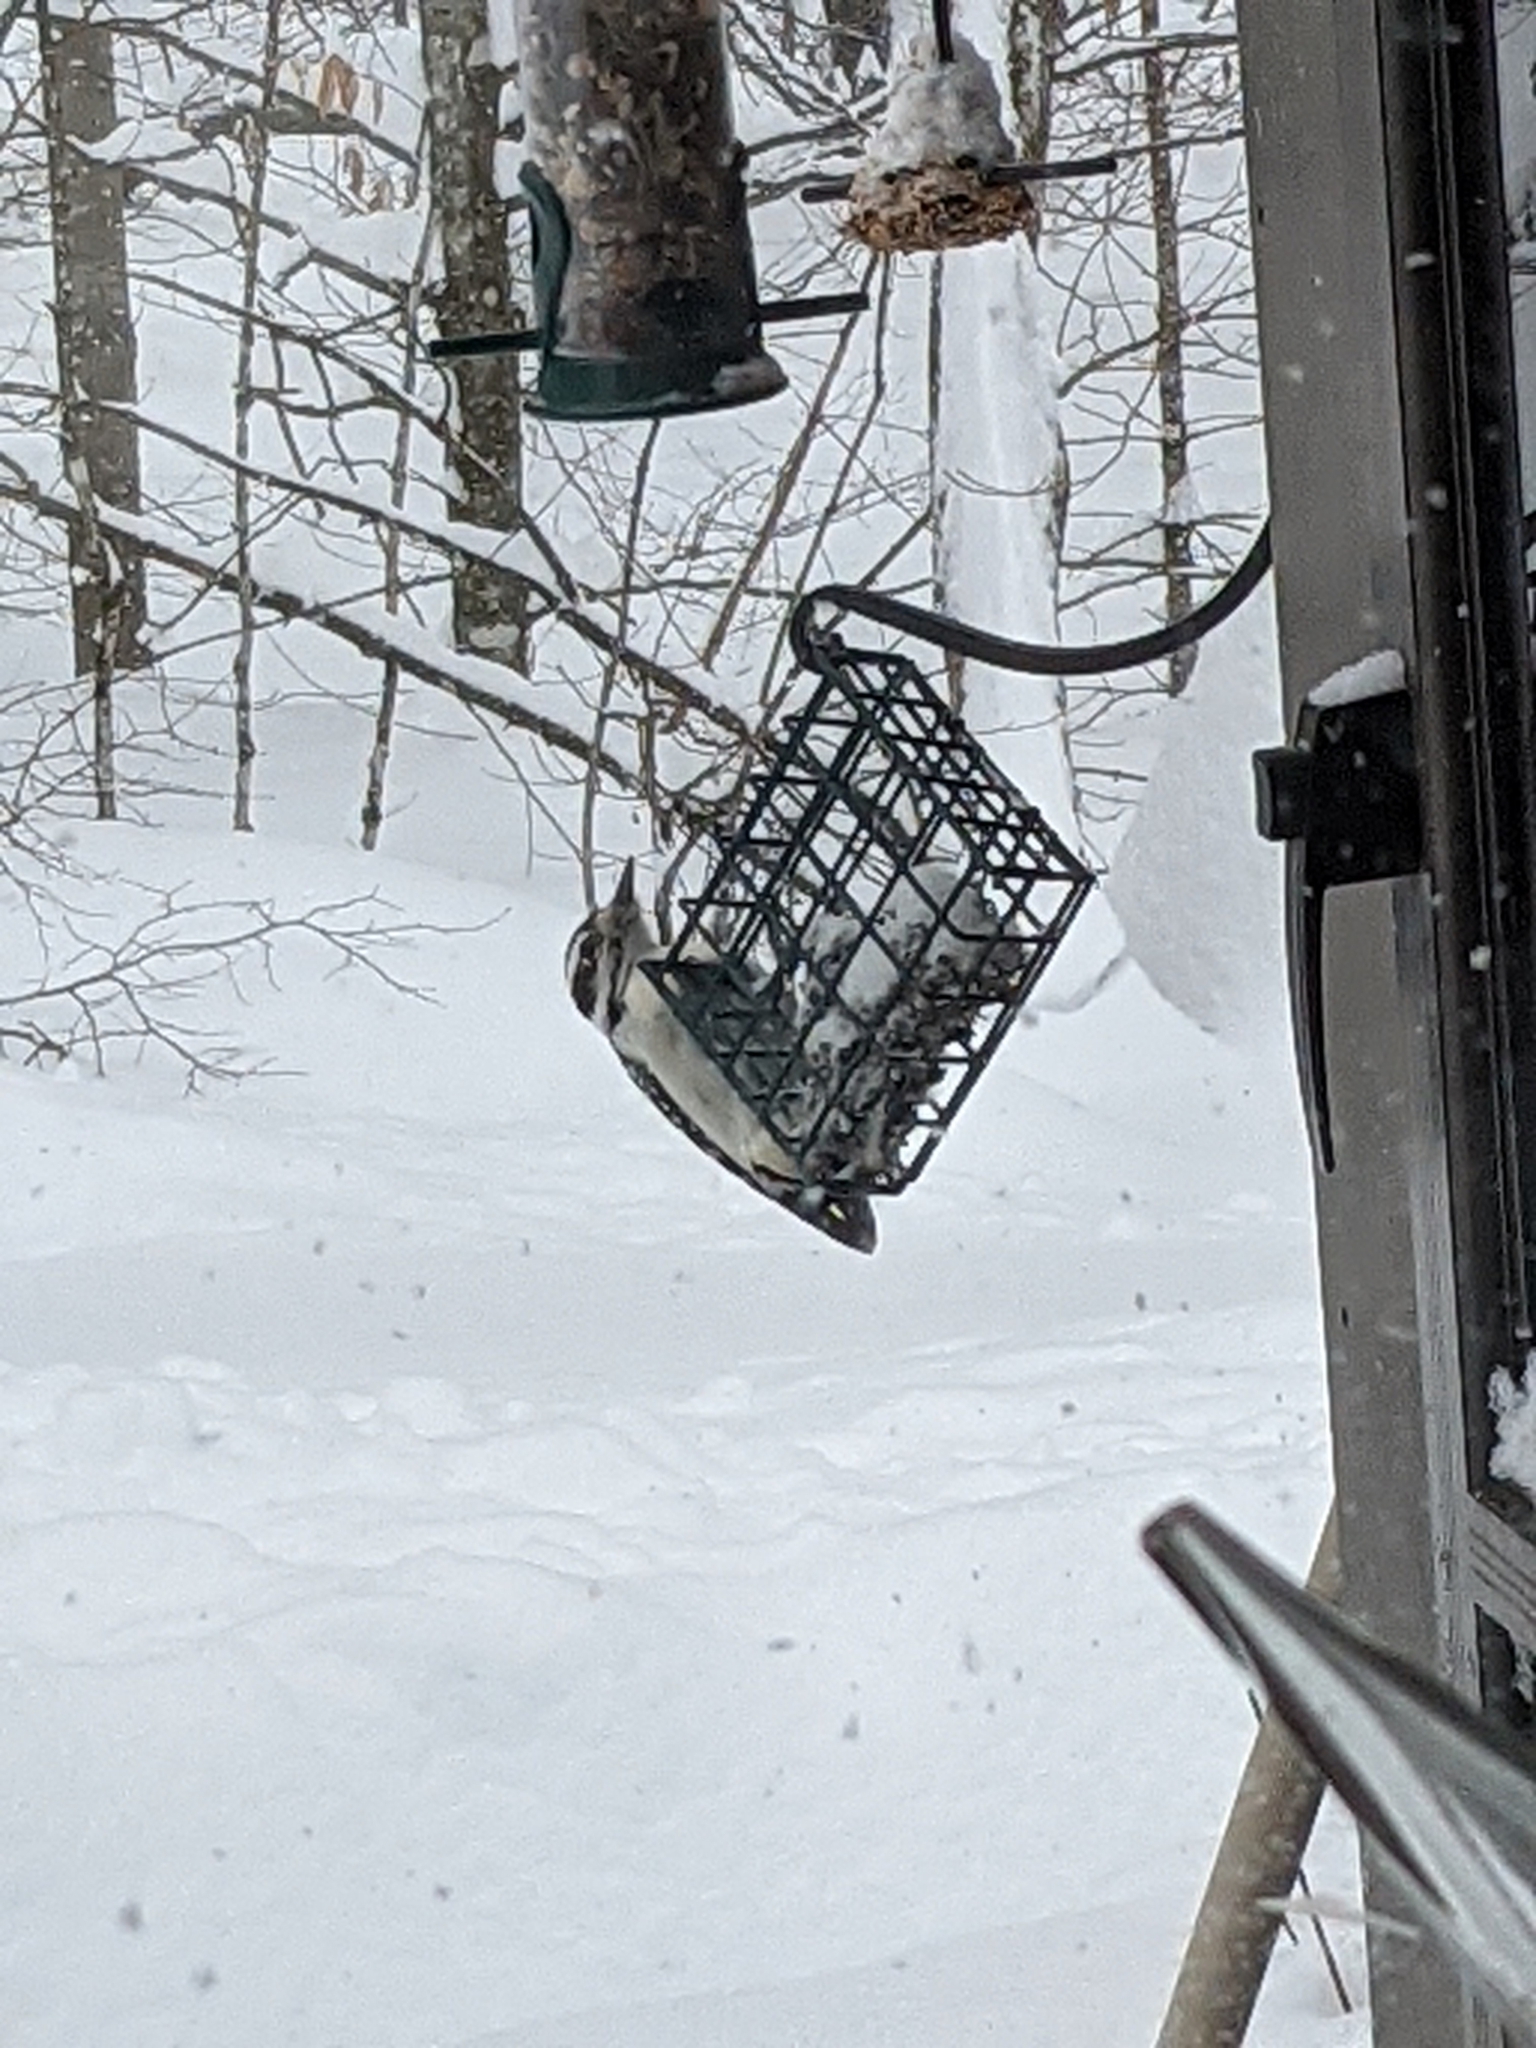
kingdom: Animalia
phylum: Chordata
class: Aves
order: Piciformes
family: Picidae
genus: Leuconotopicus
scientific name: Leuconotopicus villosus
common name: Hairy woodpecker
